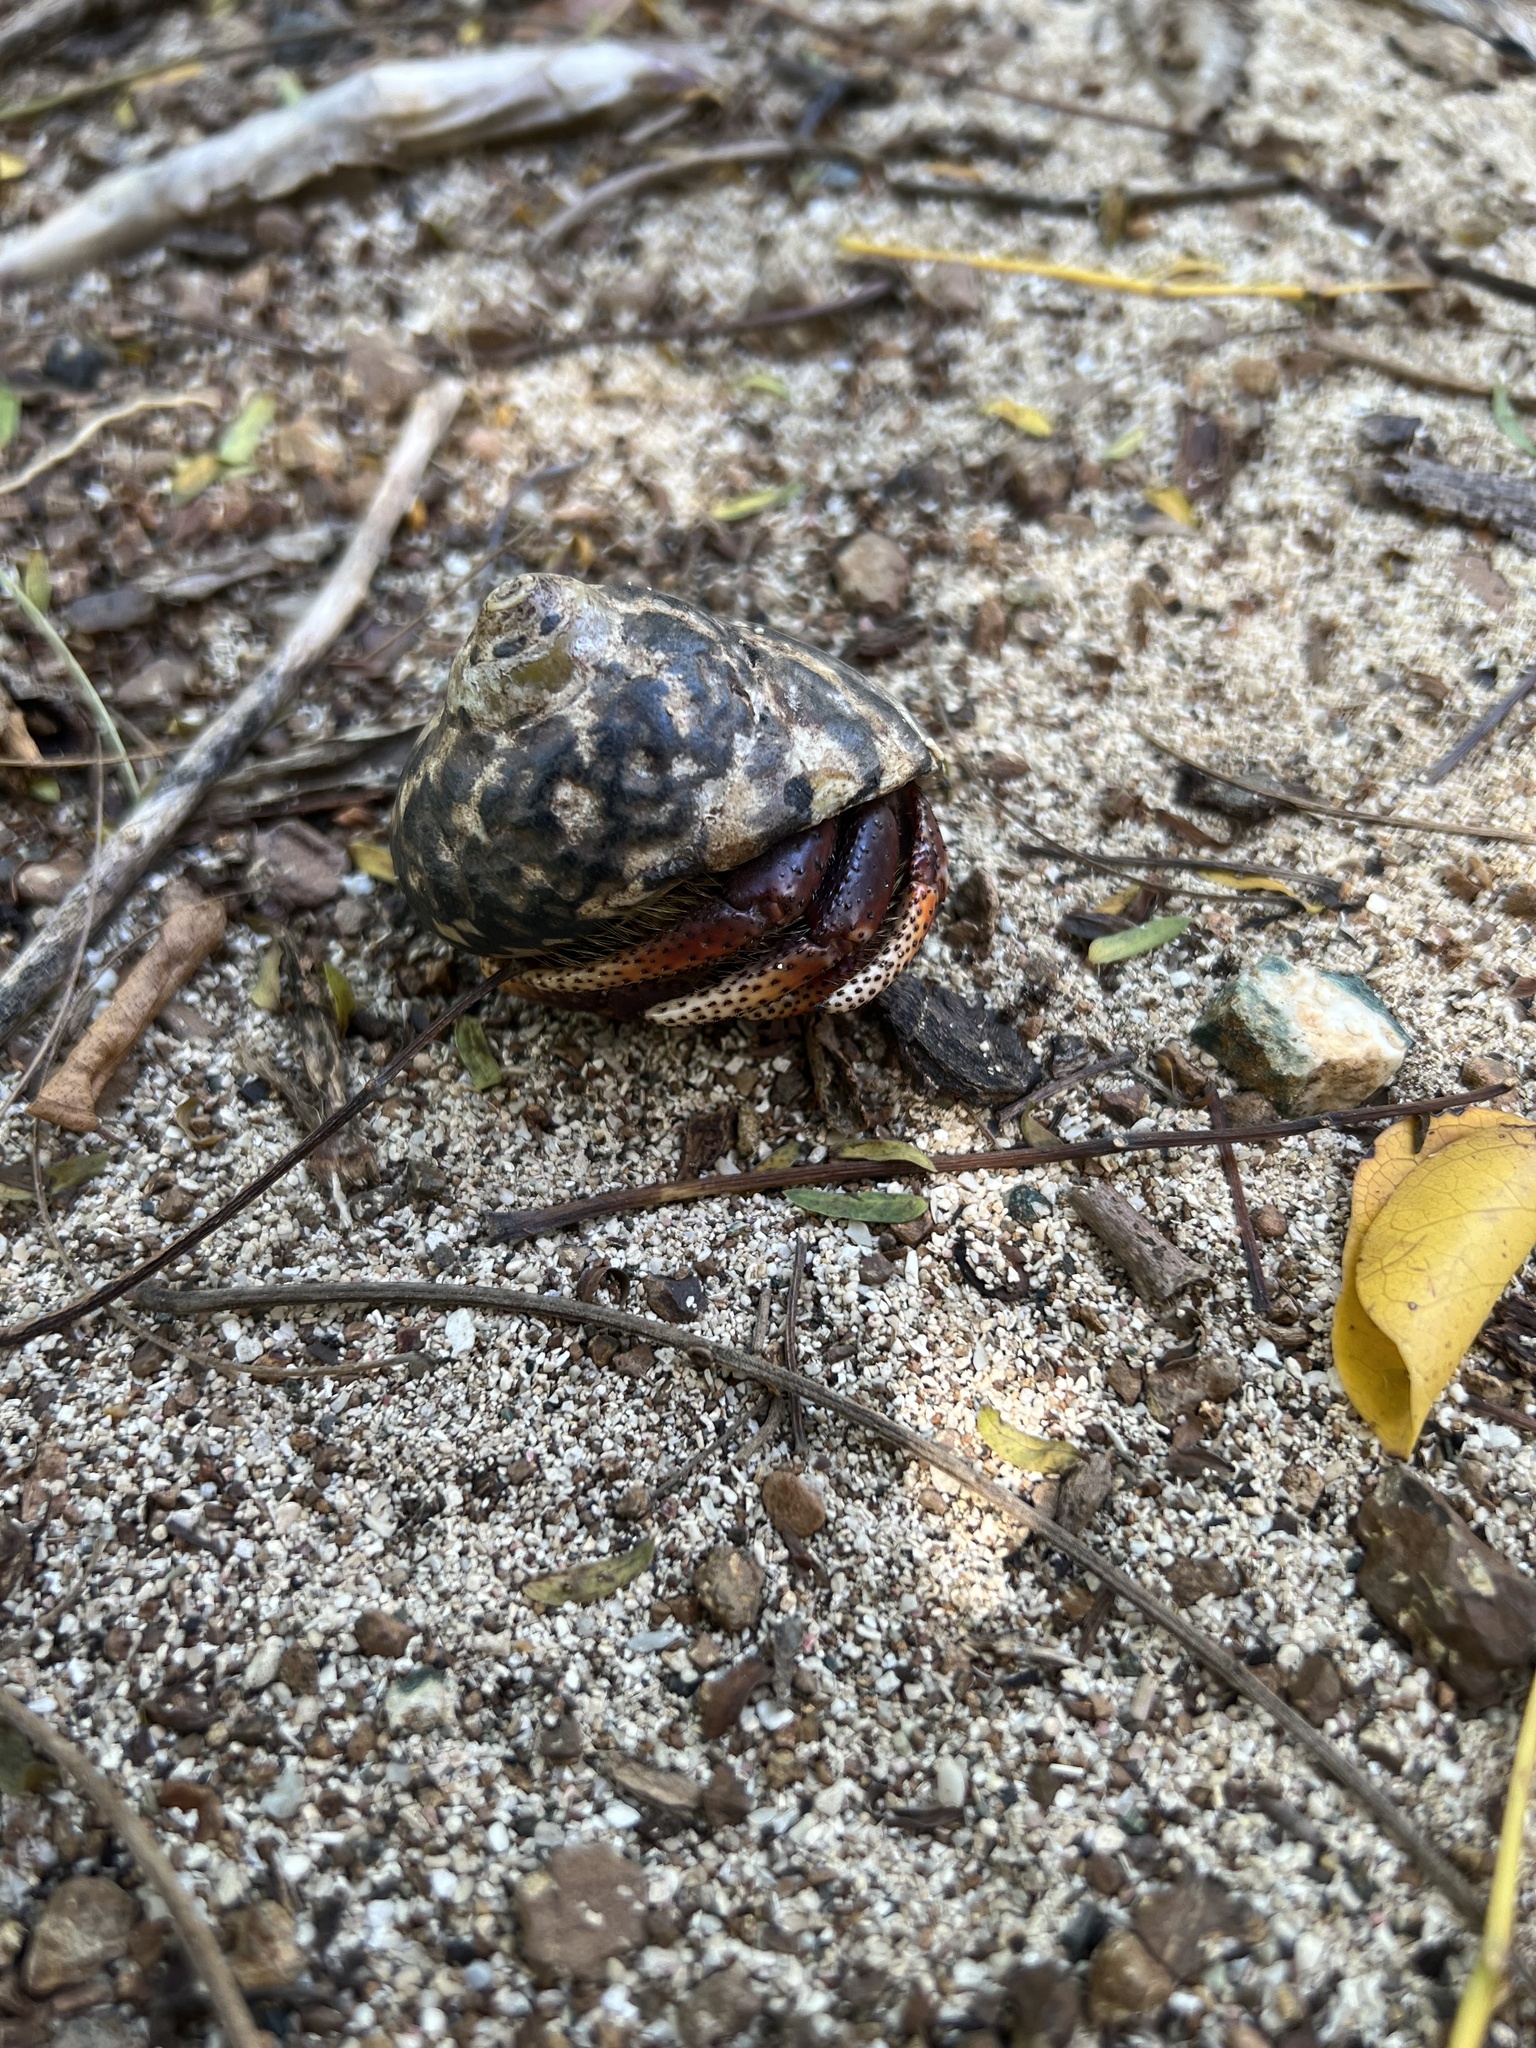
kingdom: Animalia
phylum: Arthropoda
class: Malacostraca
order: Decapoda
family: Coenobitidae
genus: Coenobita
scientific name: Coenobita clypeatus
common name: Caribbean hermit crab
